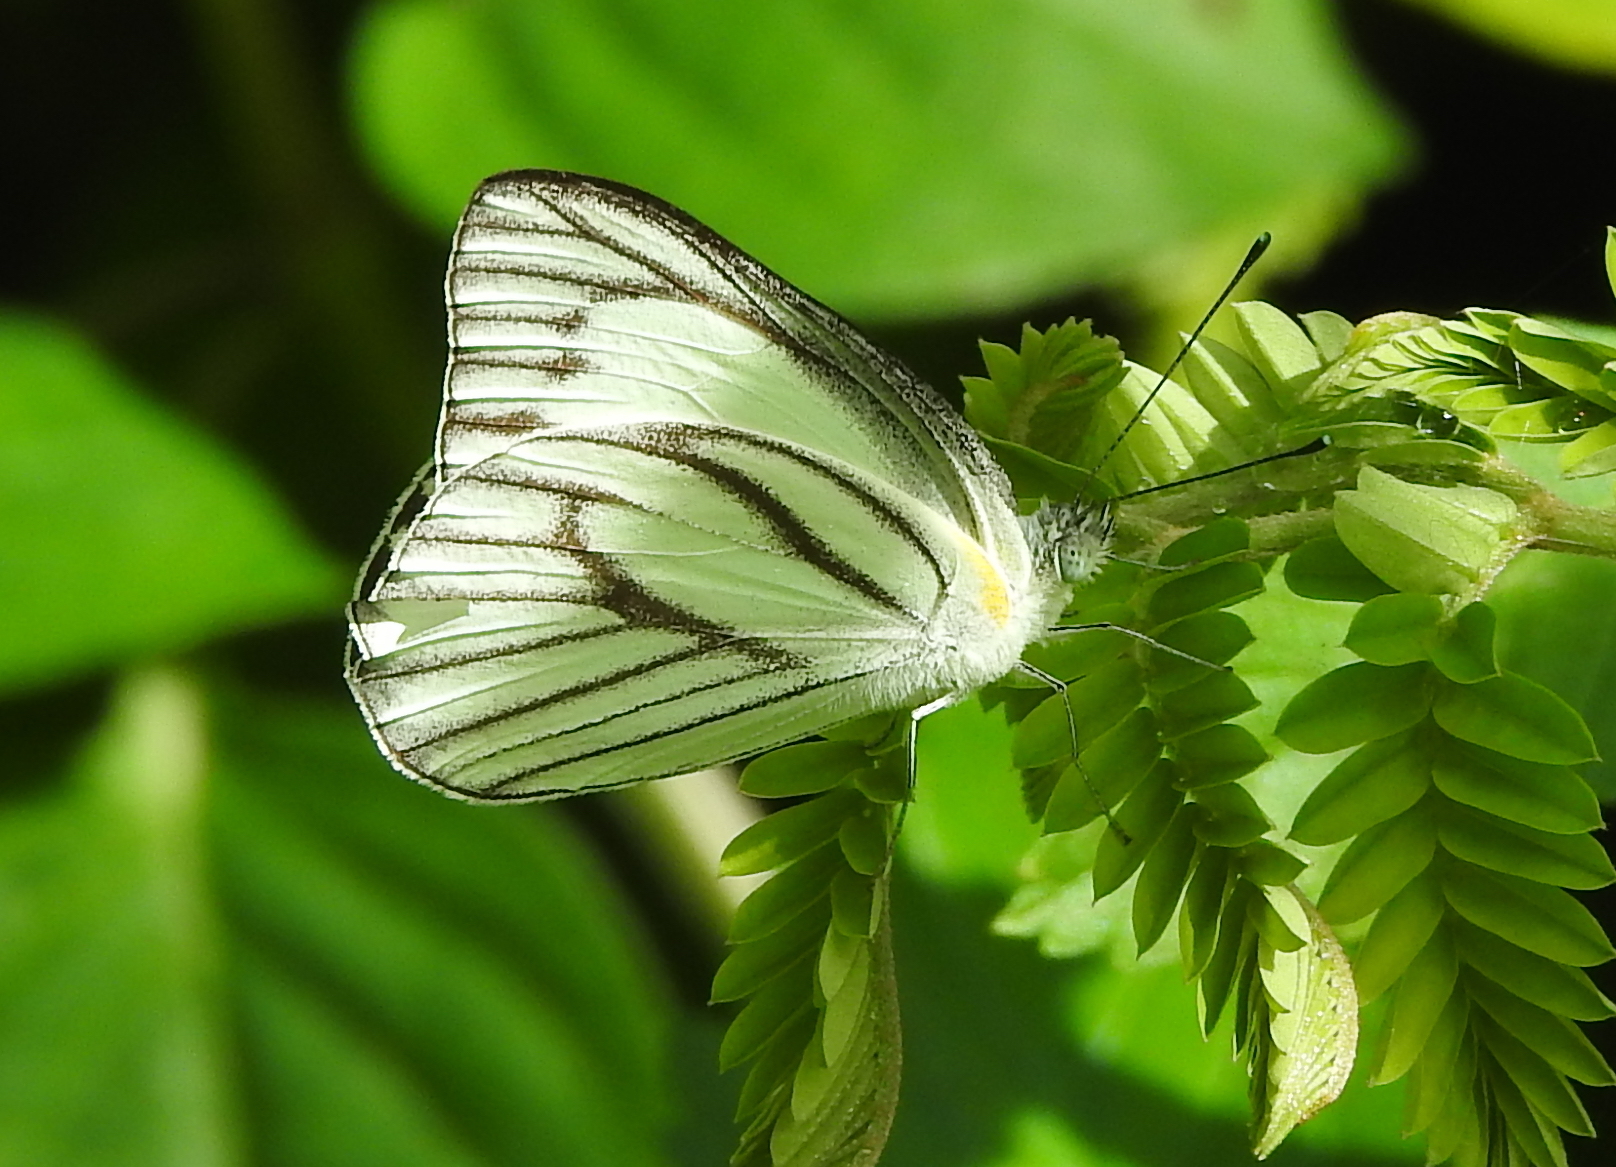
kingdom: Animalia
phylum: Arthropoda
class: Insecta
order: Lepidoptera
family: Pieridae
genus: Appias
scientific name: Appias libythea
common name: Striped albatross
